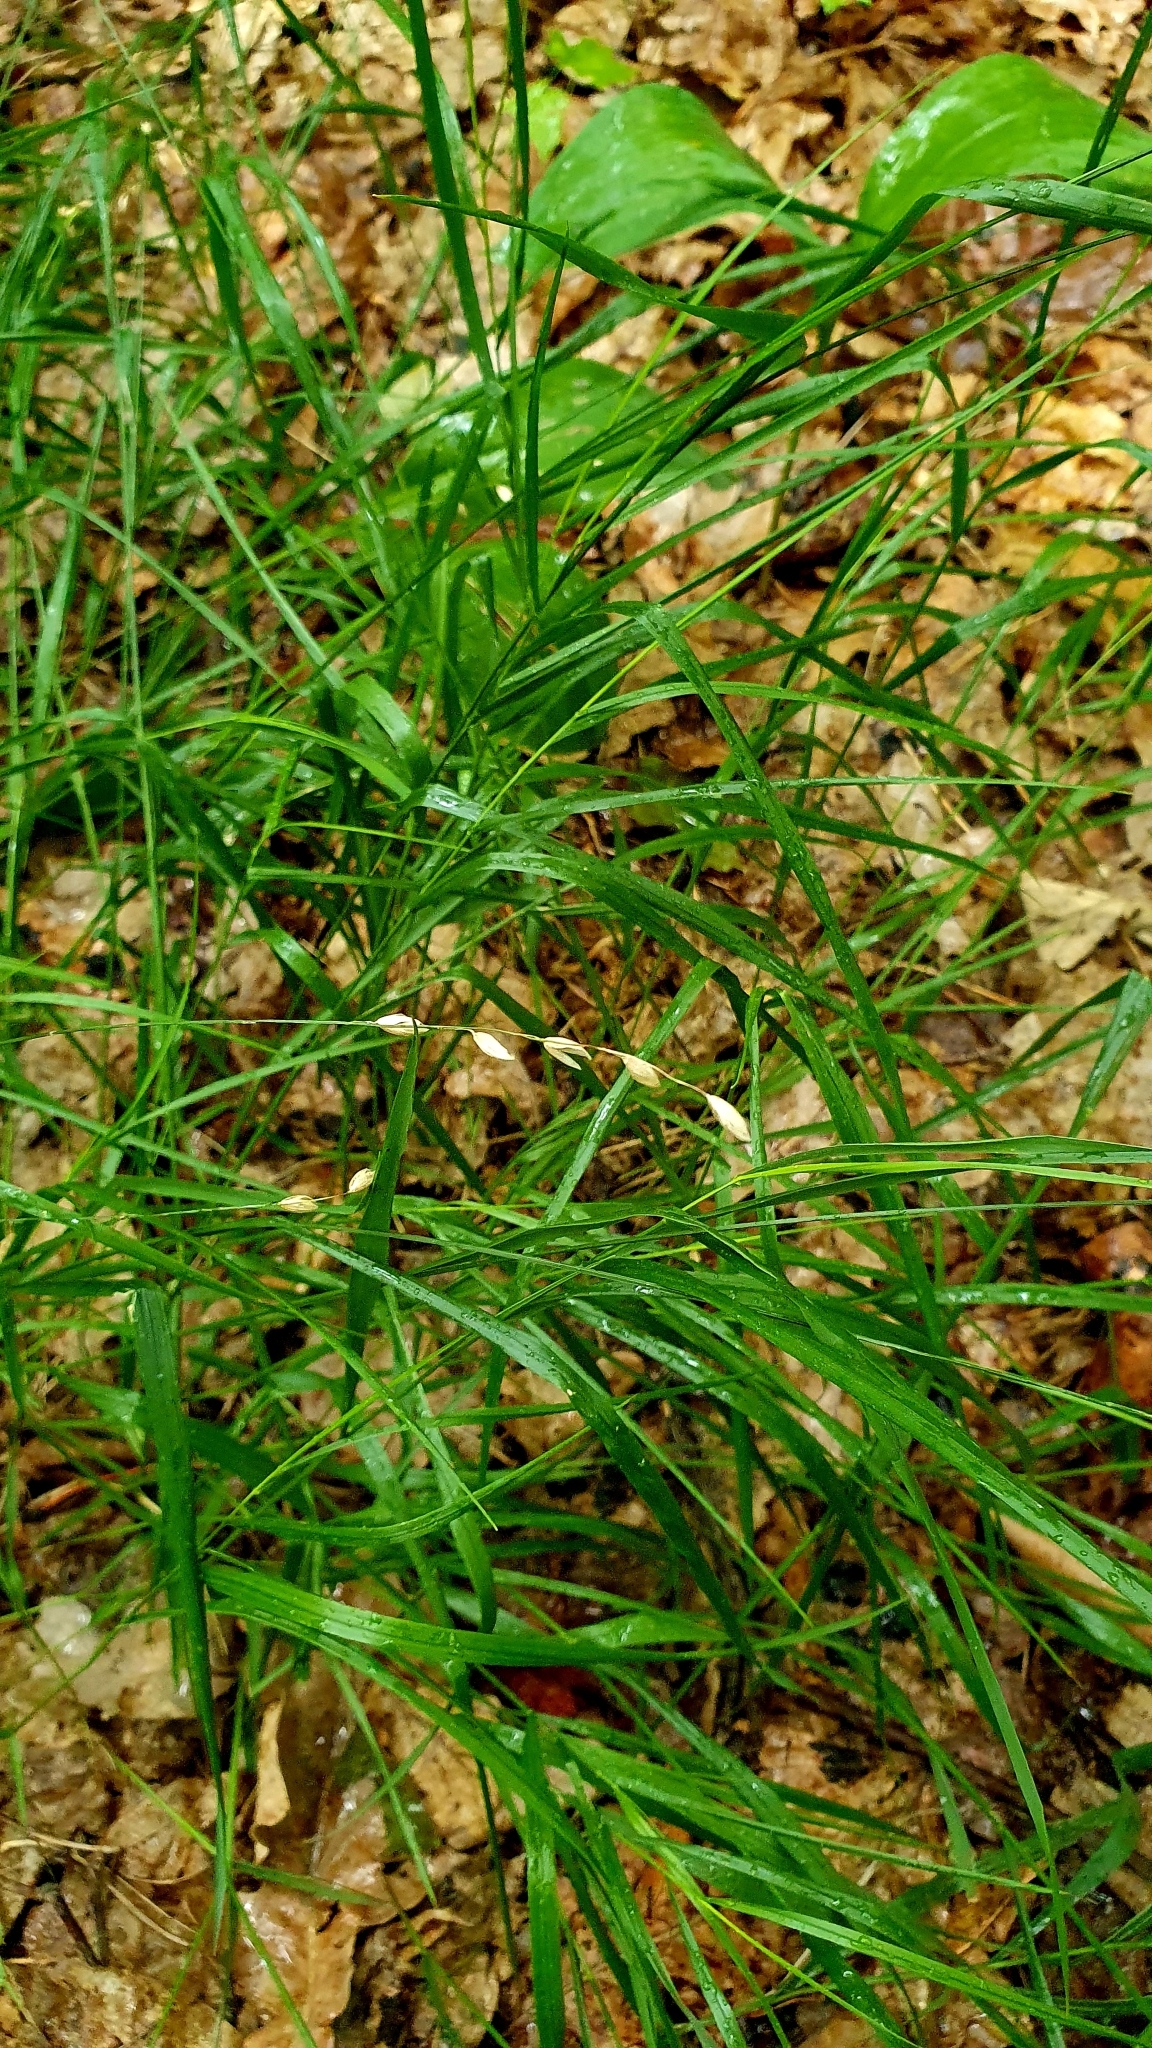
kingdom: Plantae
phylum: Tracheophyta
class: Liliopsida
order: Poales
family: Poaceae
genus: Melica
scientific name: Melica nutans
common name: Mountain melick
